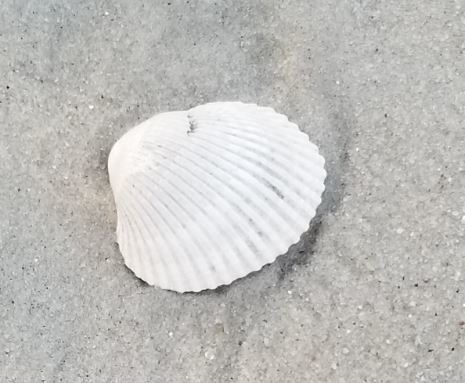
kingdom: Animalia
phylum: Mollusca
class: Bivalvia
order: Arcida
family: Arcidae
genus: Lunarca
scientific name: Lunarca ovalis
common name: Blood ark
